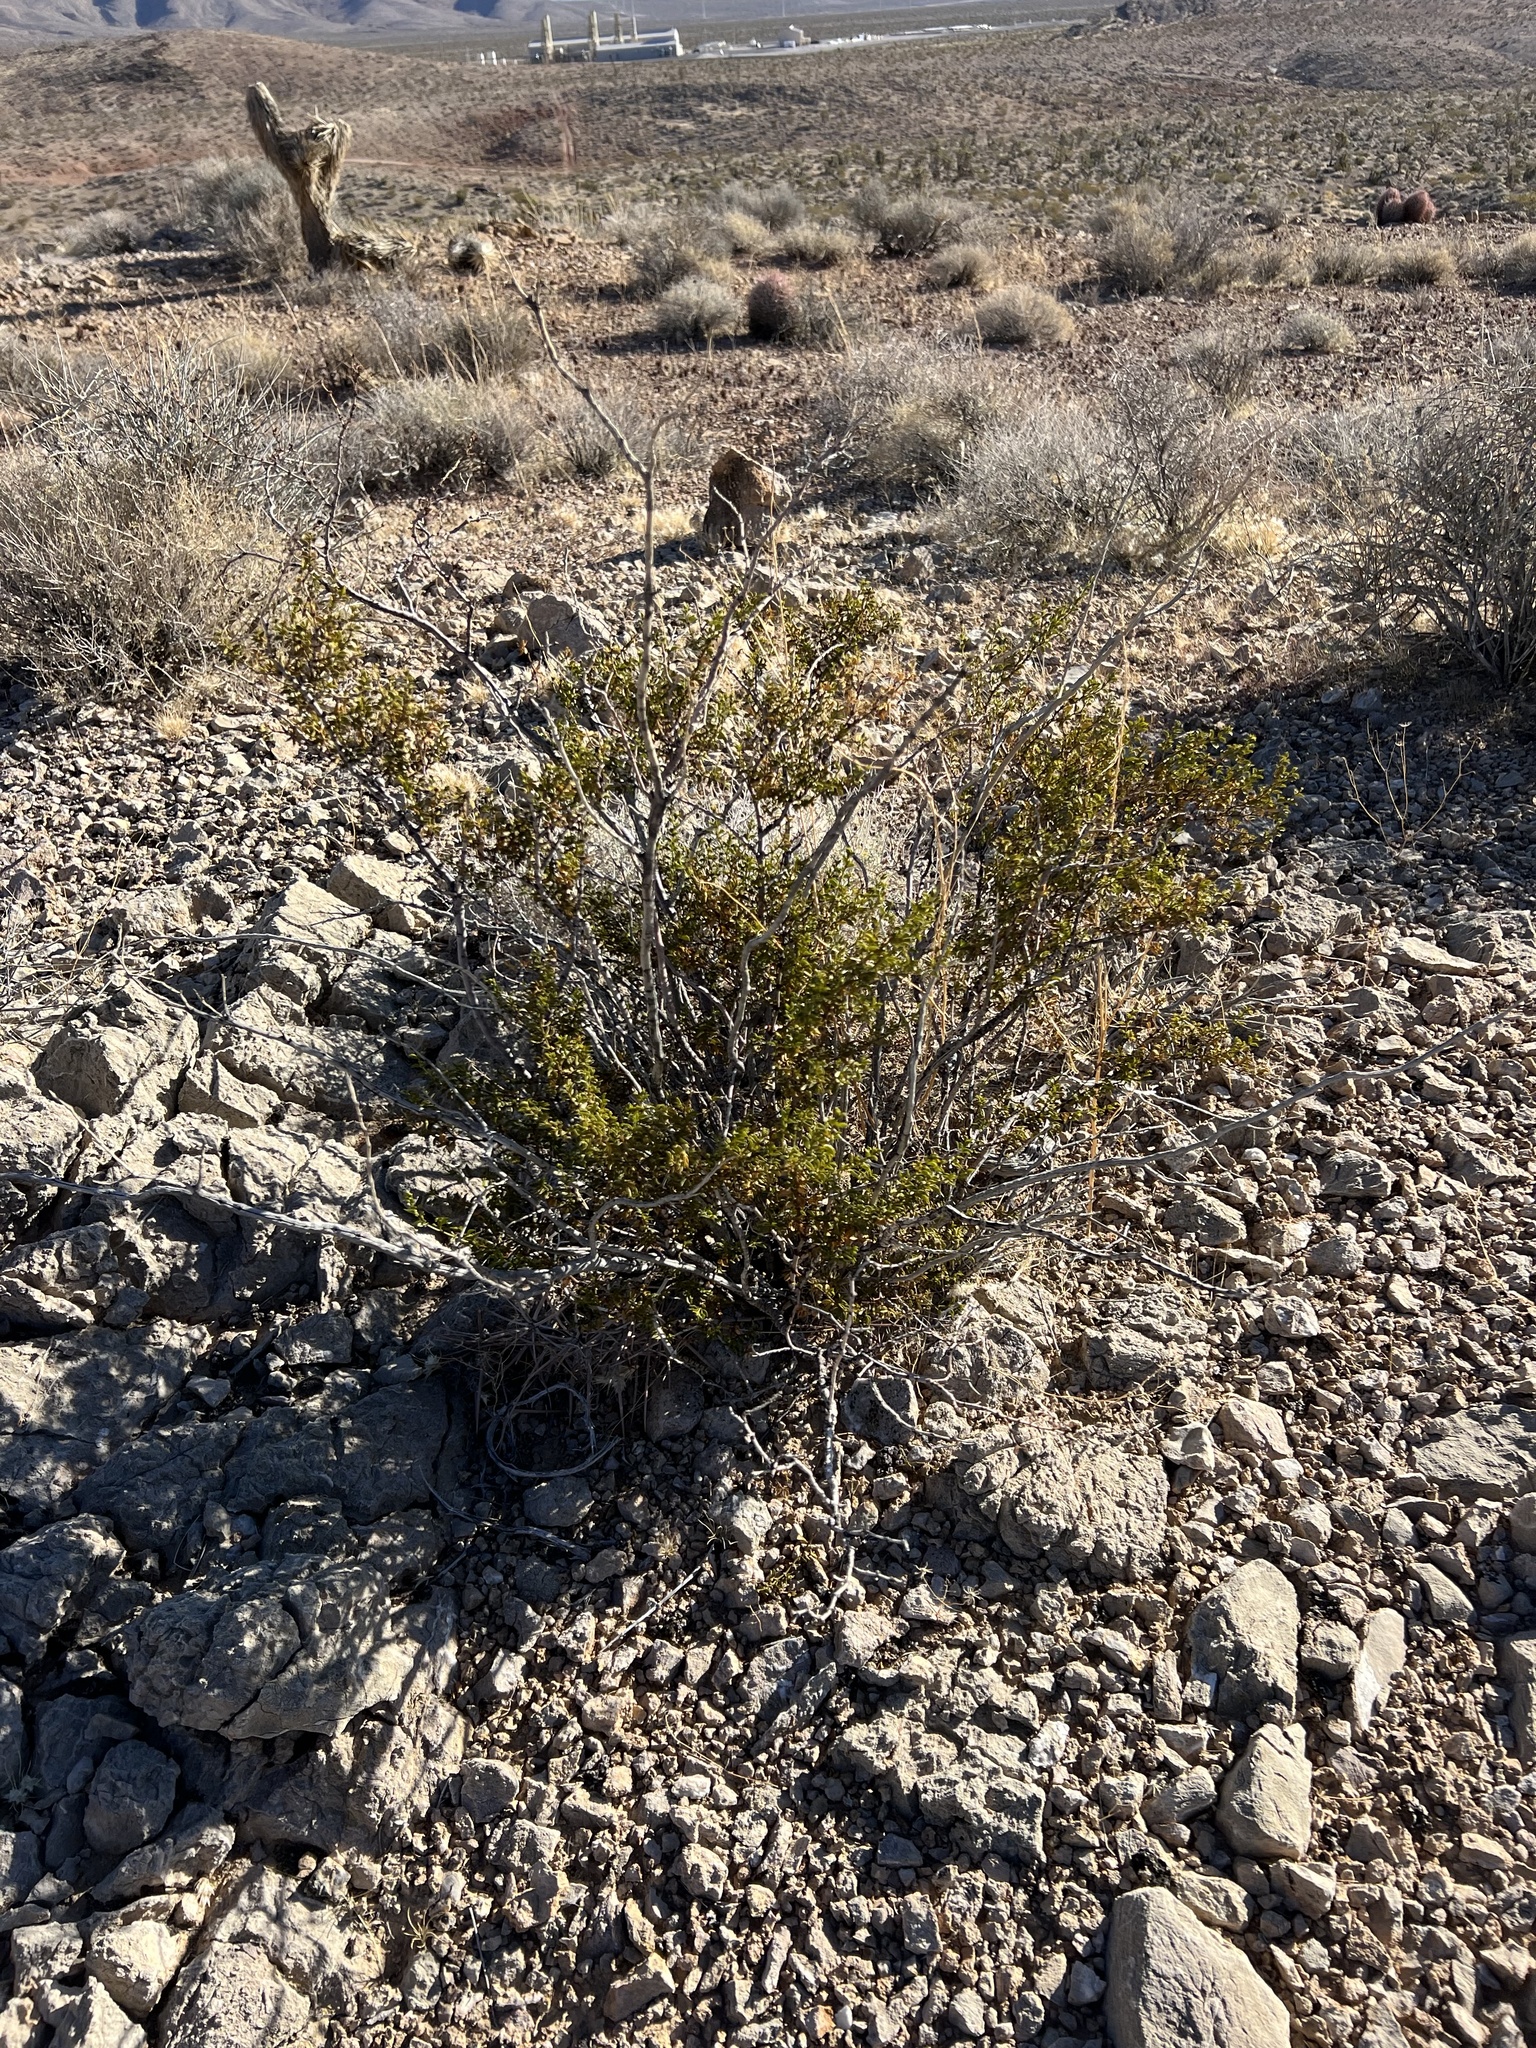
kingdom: Plantae
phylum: Tracheophyta
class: Magnoliopsida
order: Zygophyllales
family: Zygophyllaceae
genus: Larrea
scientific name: Larrea tridentata
